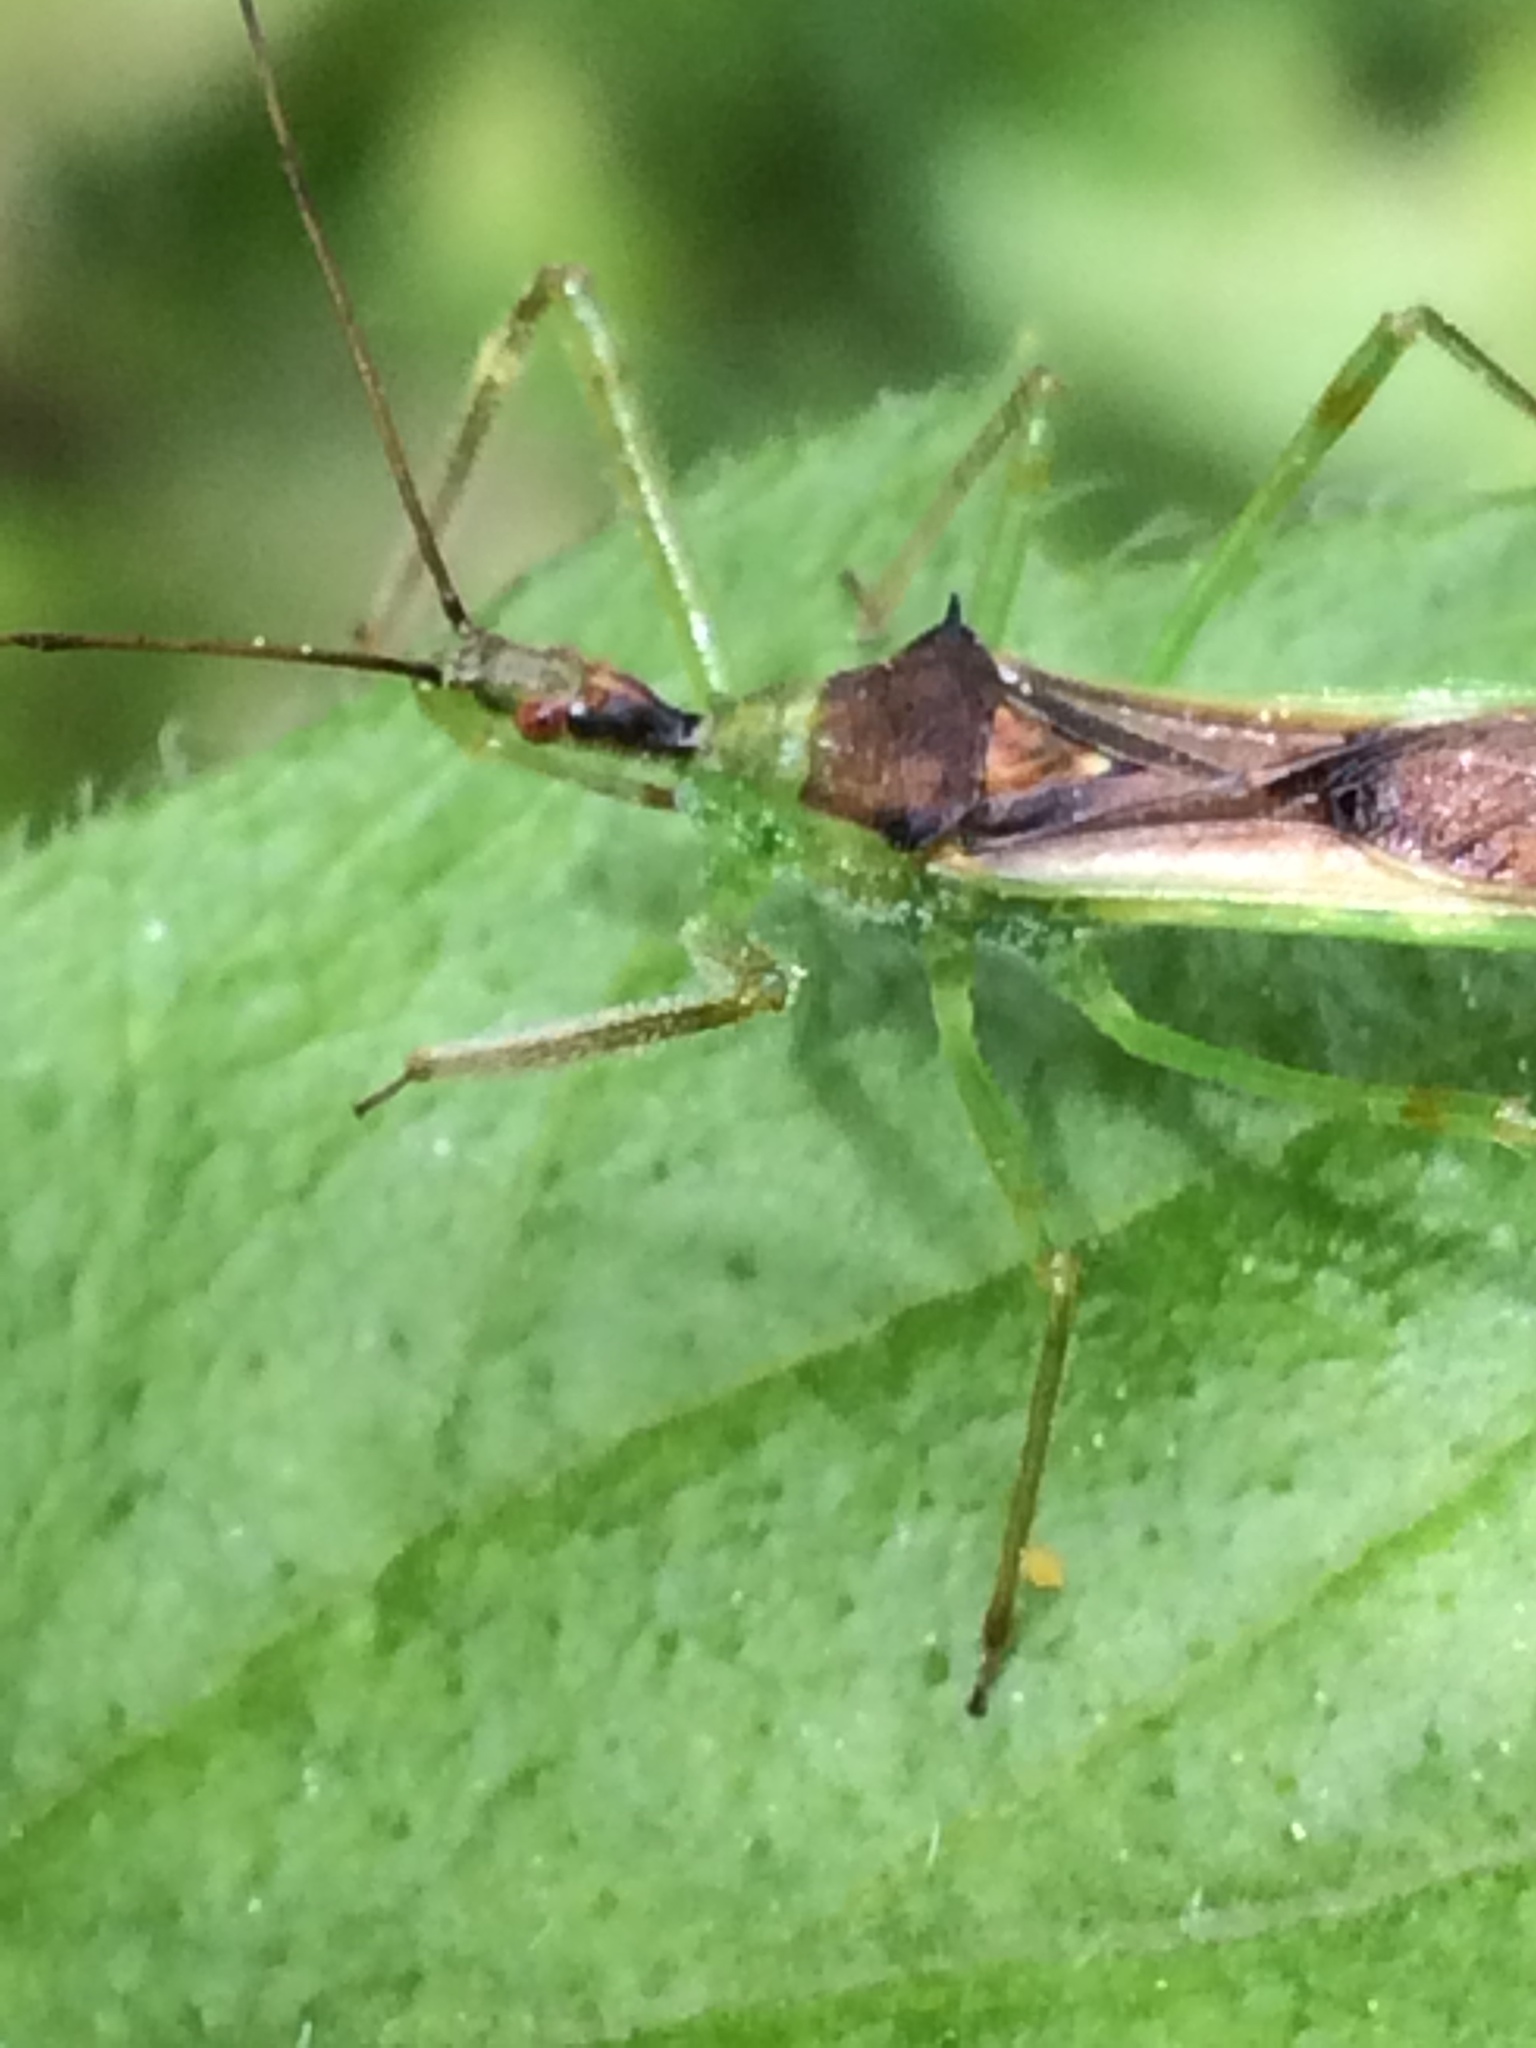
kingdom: Animalia
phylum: Arthropoda
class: Insecta
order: Hemiptera
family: Reduviidae
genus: Zelus
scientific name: Zelus luridus
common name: Pale green assassin bug
